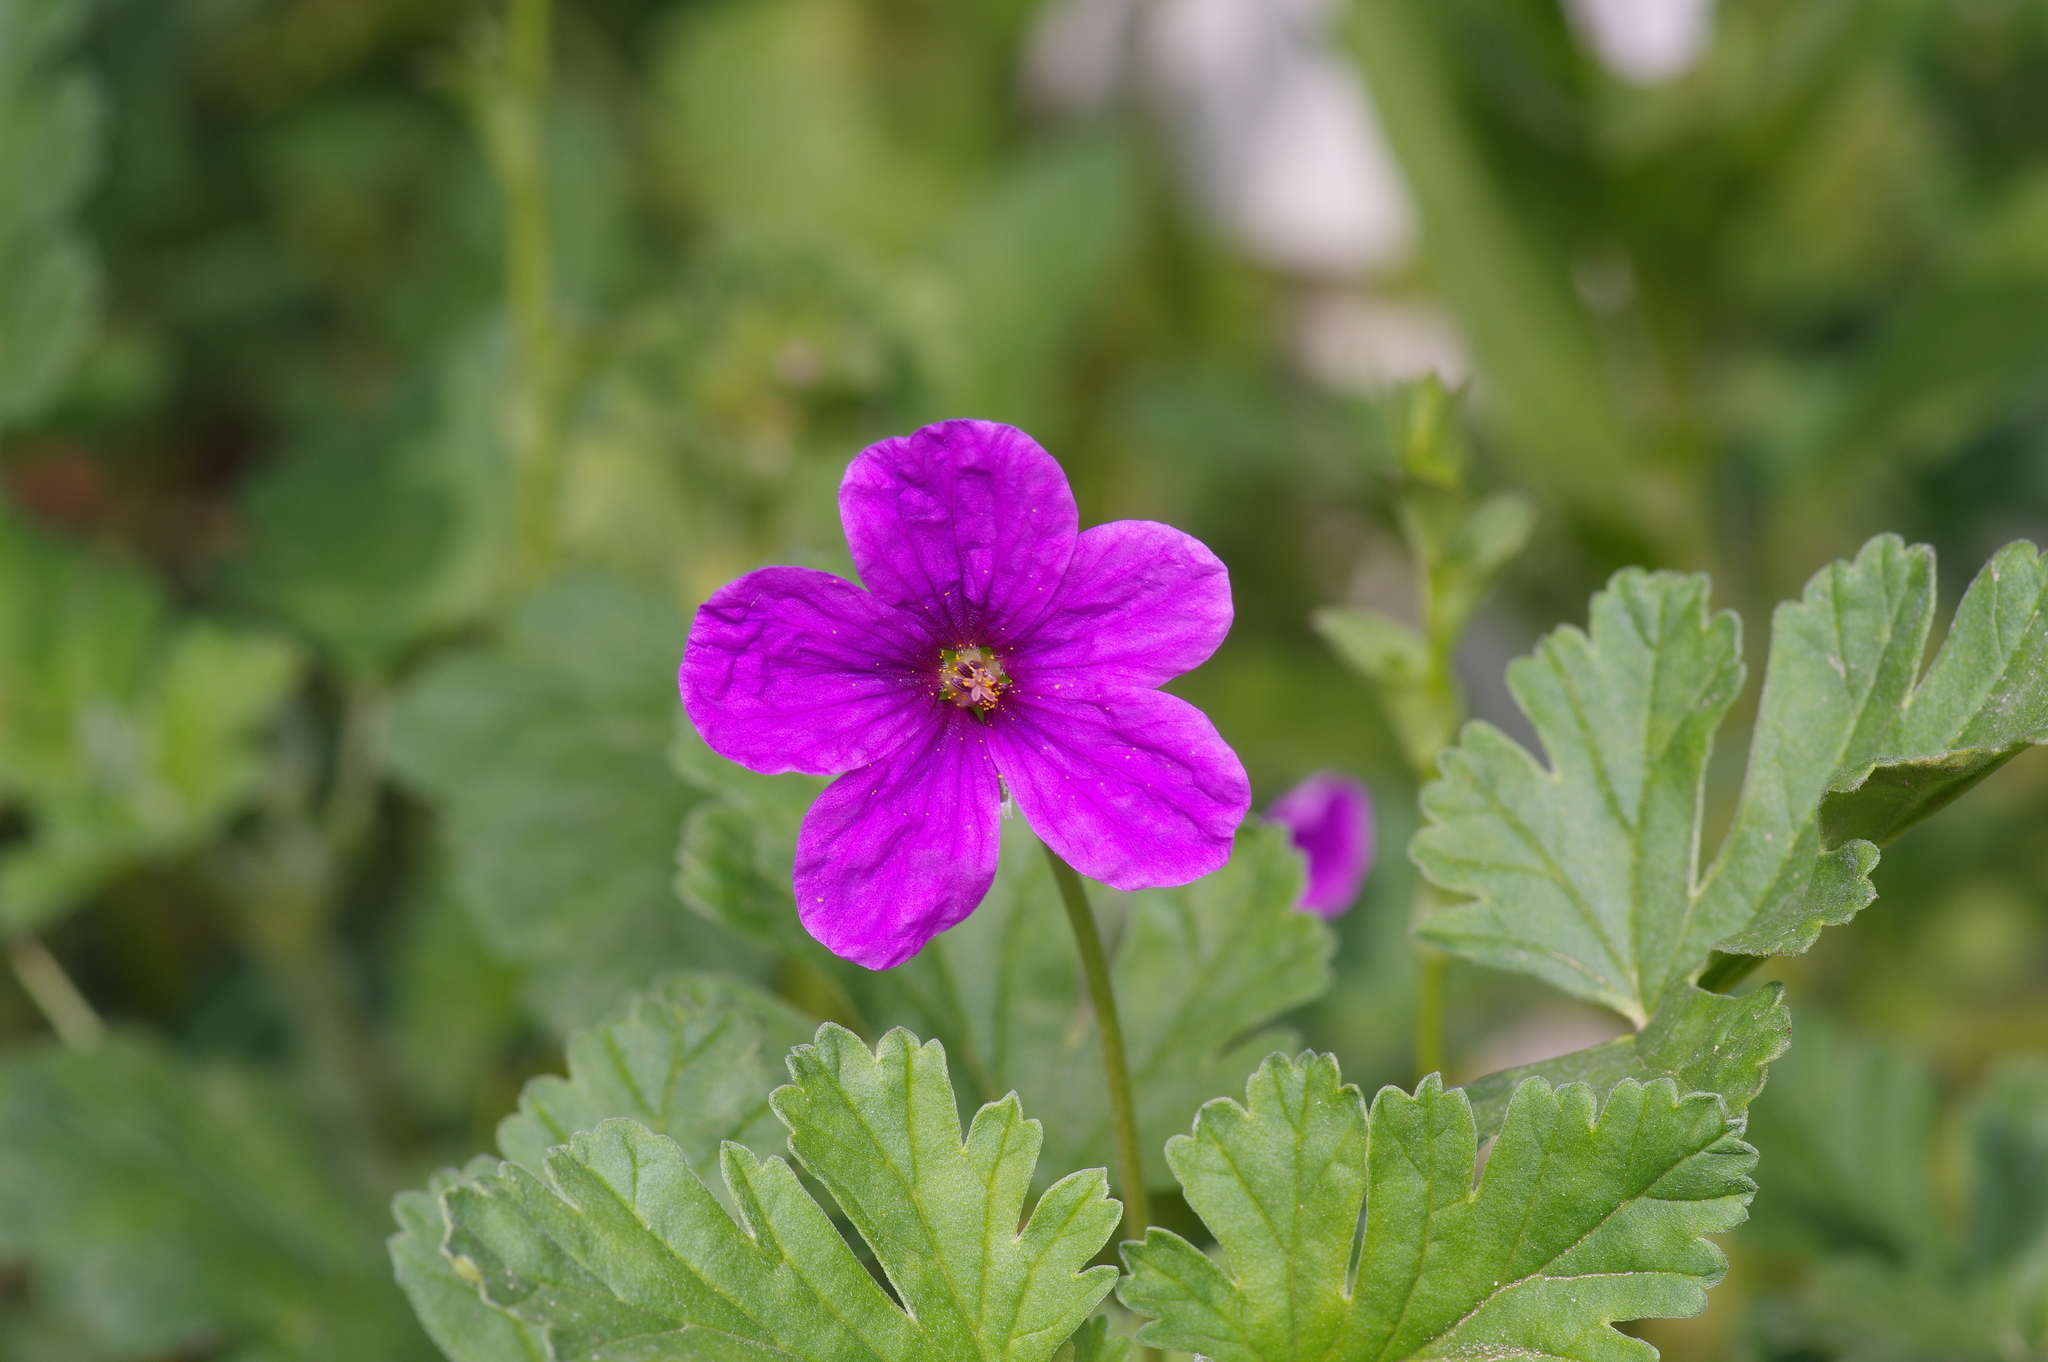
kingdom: Plantae
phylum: Tracheophyta
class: Magnoliopsida
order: Geraniales
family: Geraniaceae
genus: Erodium
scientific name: Erodium texanum
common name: Texas stork's-bill
